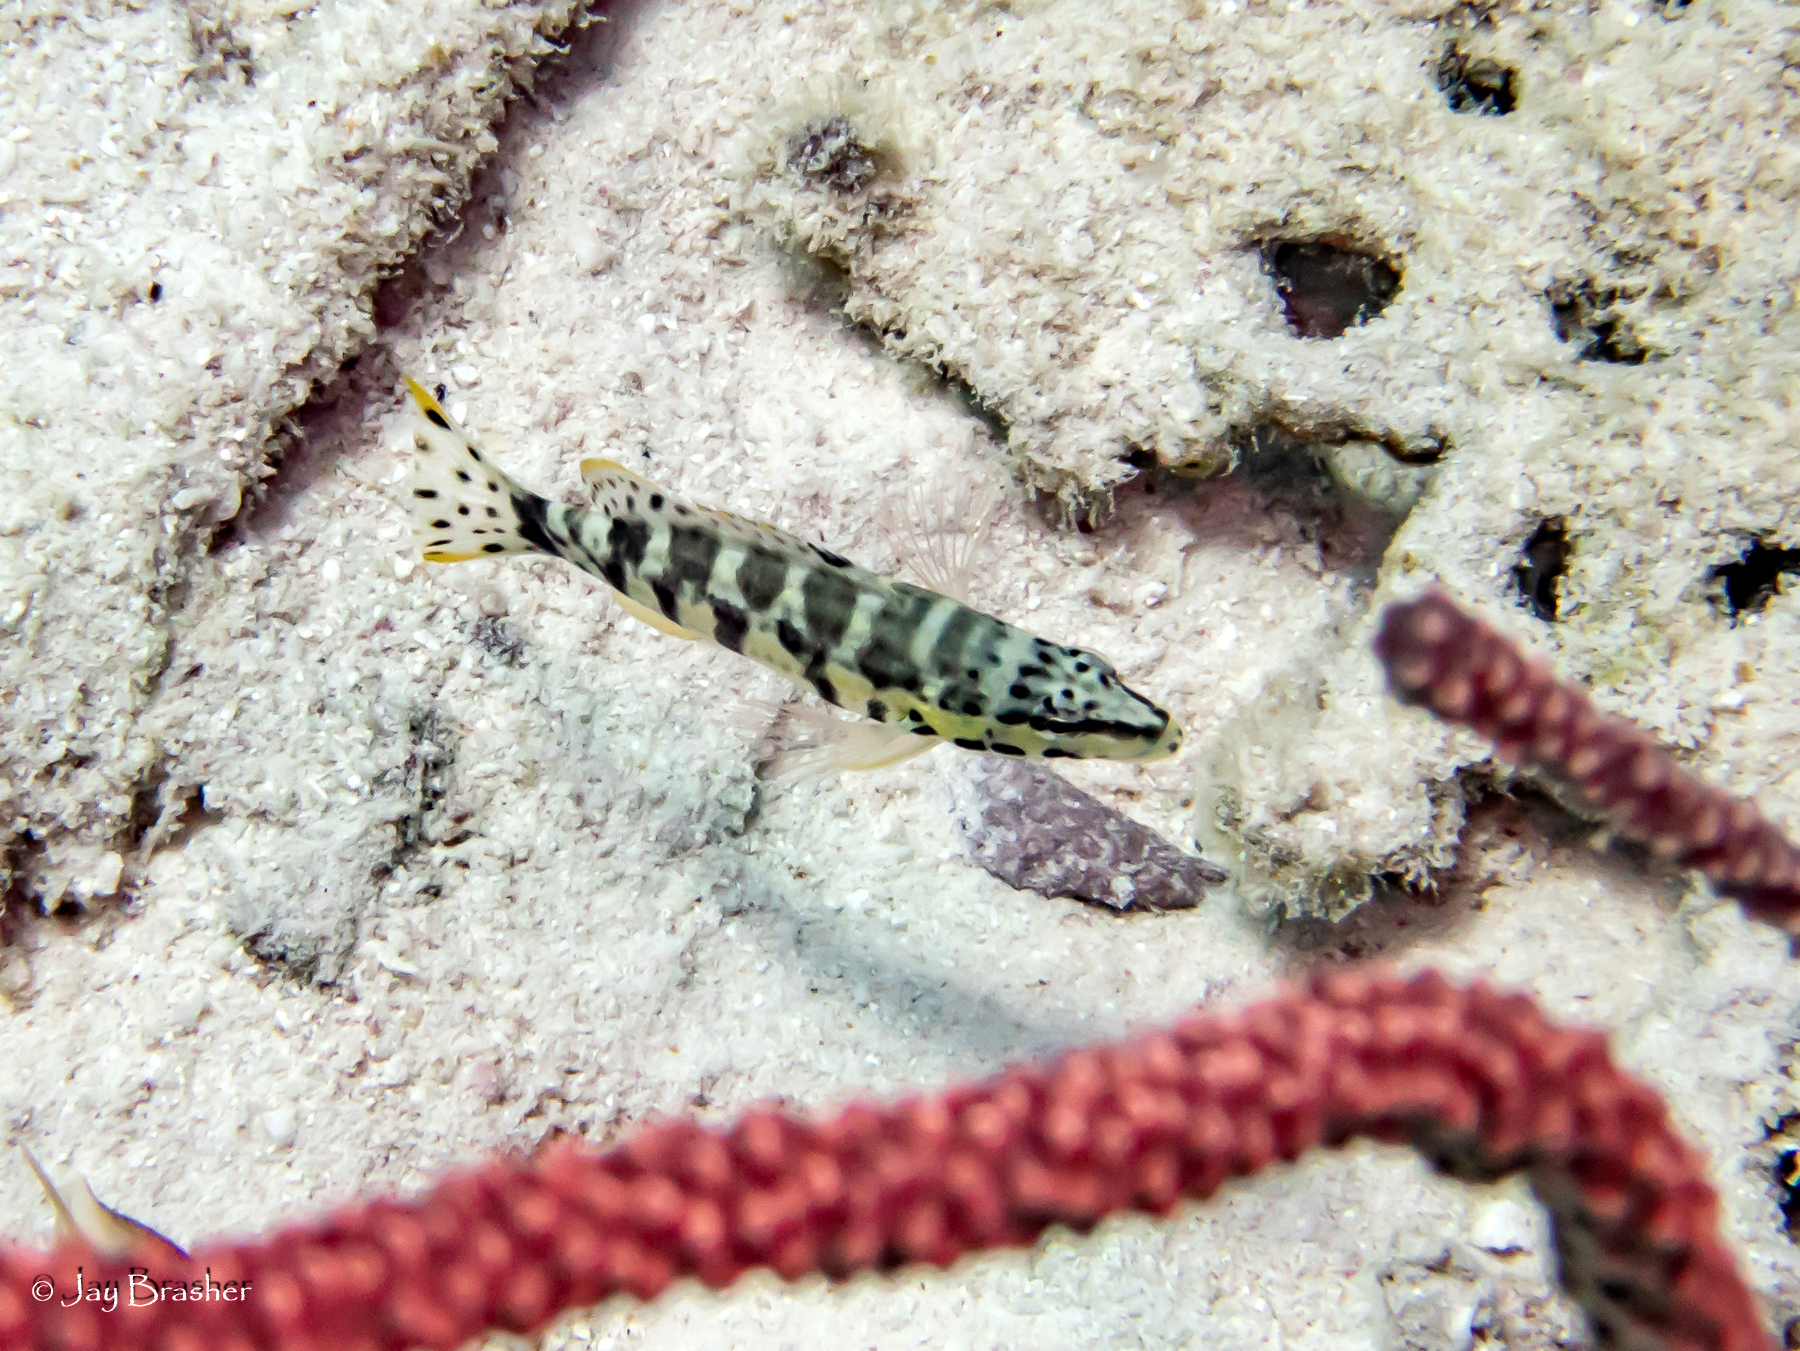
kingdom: Animalia
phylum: Chordata
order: Perciformes
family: Serranidae
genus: Serranus
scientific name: Serranus tigrinus
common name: Harlequin bass
